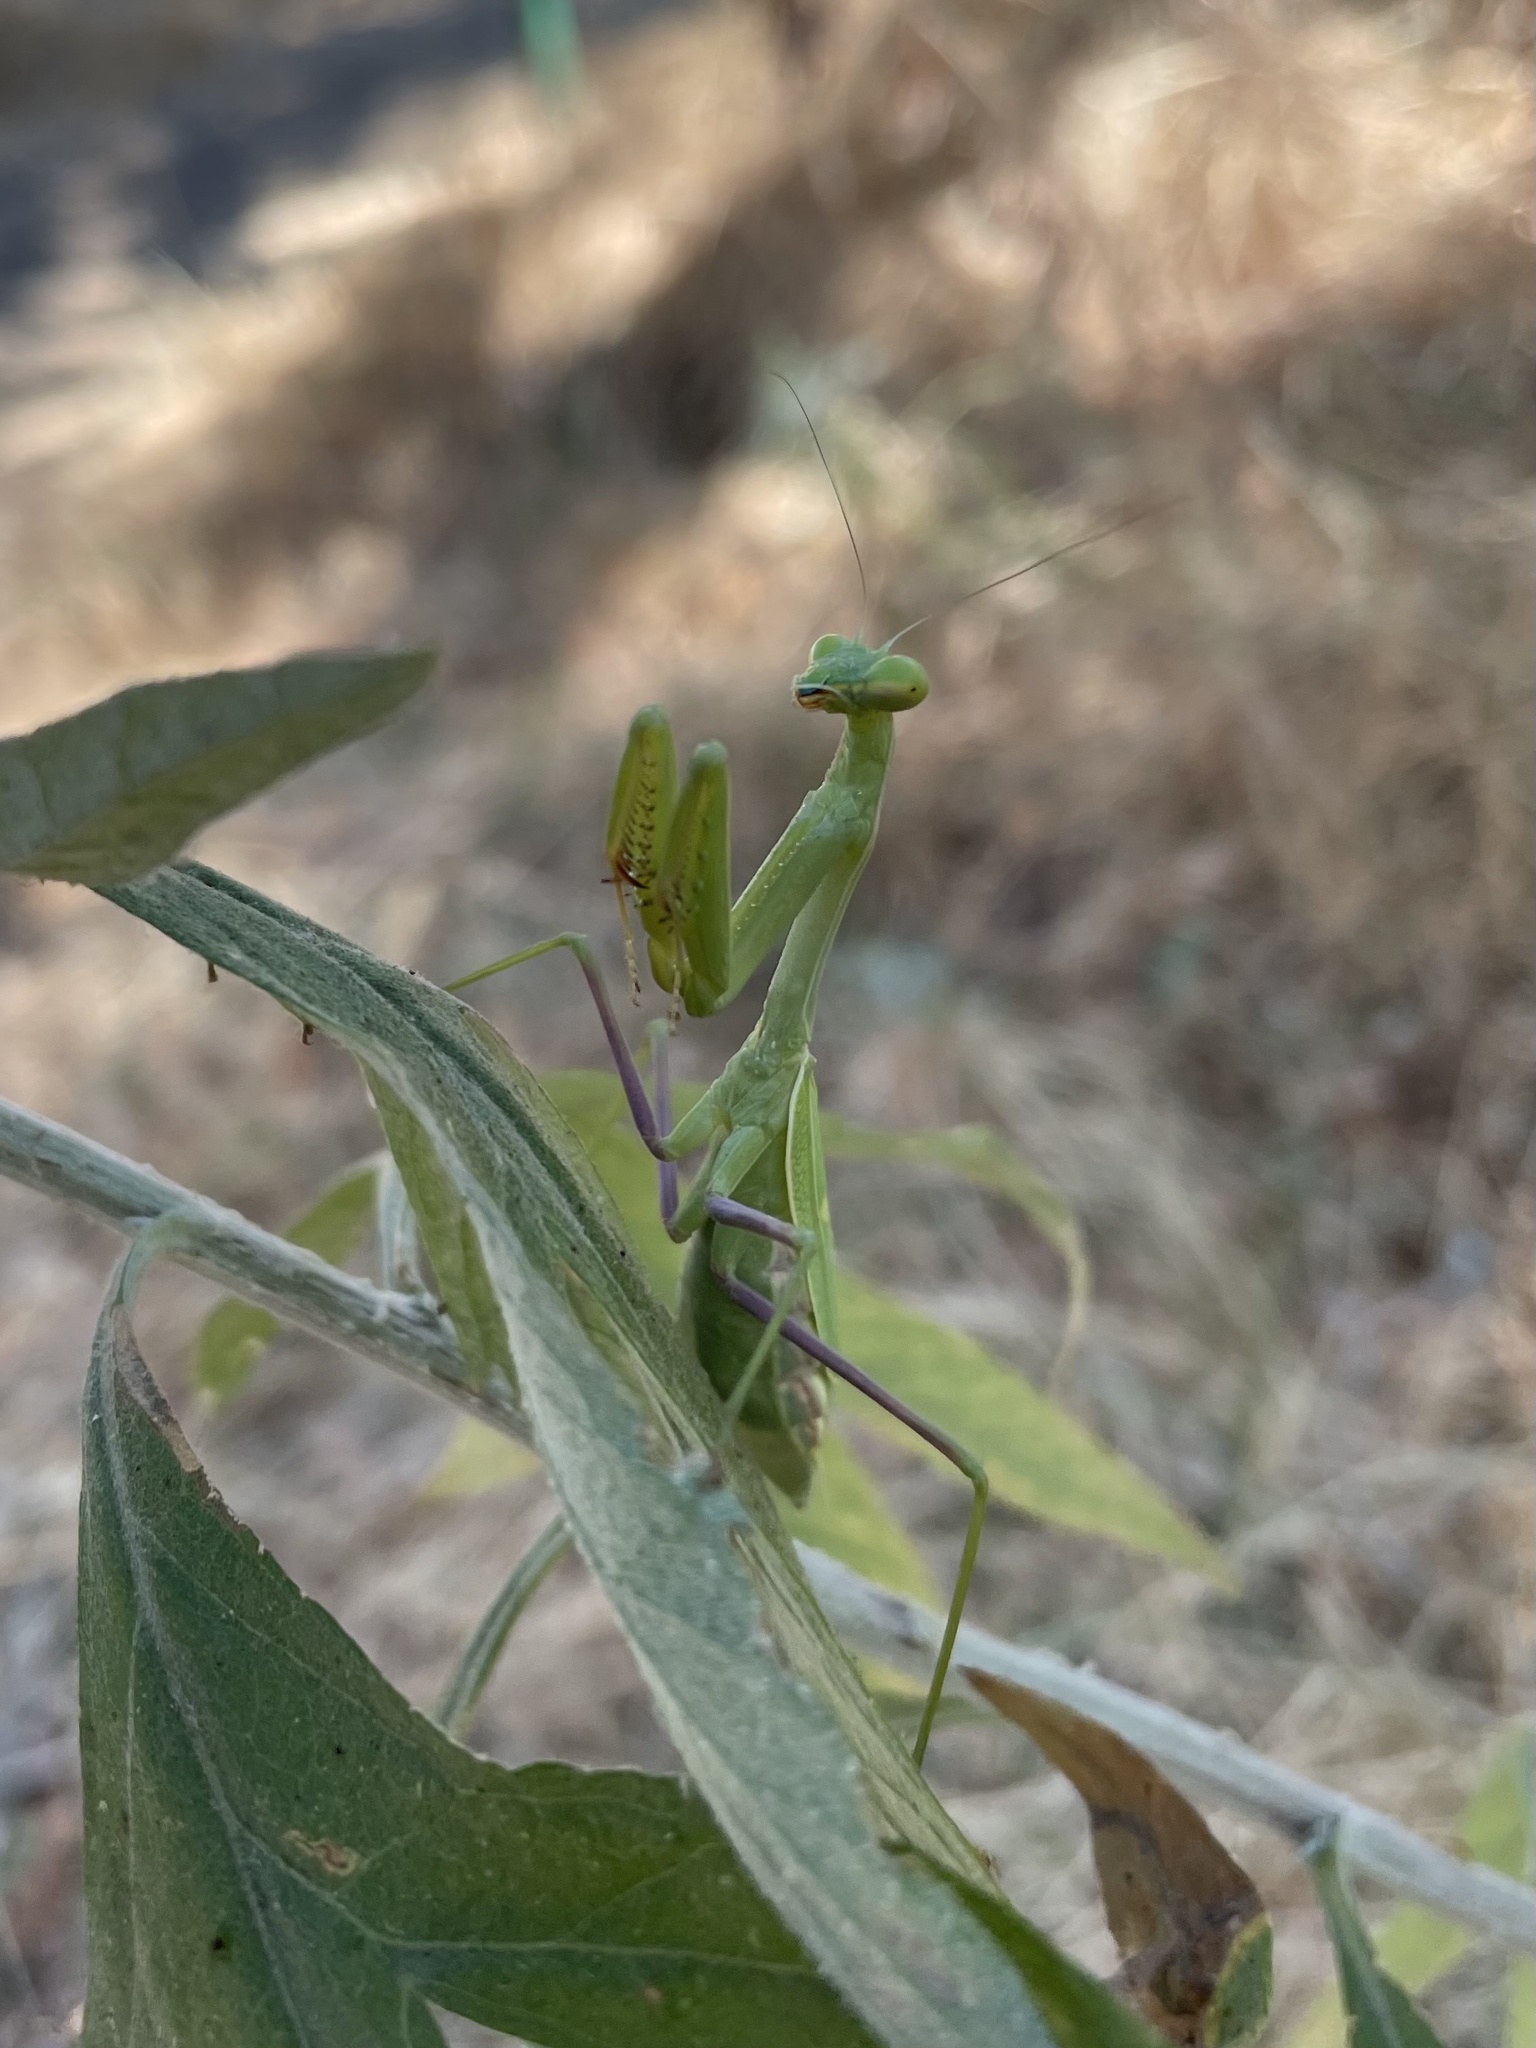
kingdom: Animalia
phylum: Arthropoda
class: Insecta
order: Mantodea
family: Mantidae
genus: Stagmomantis
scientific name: Stagmomantis limbata
